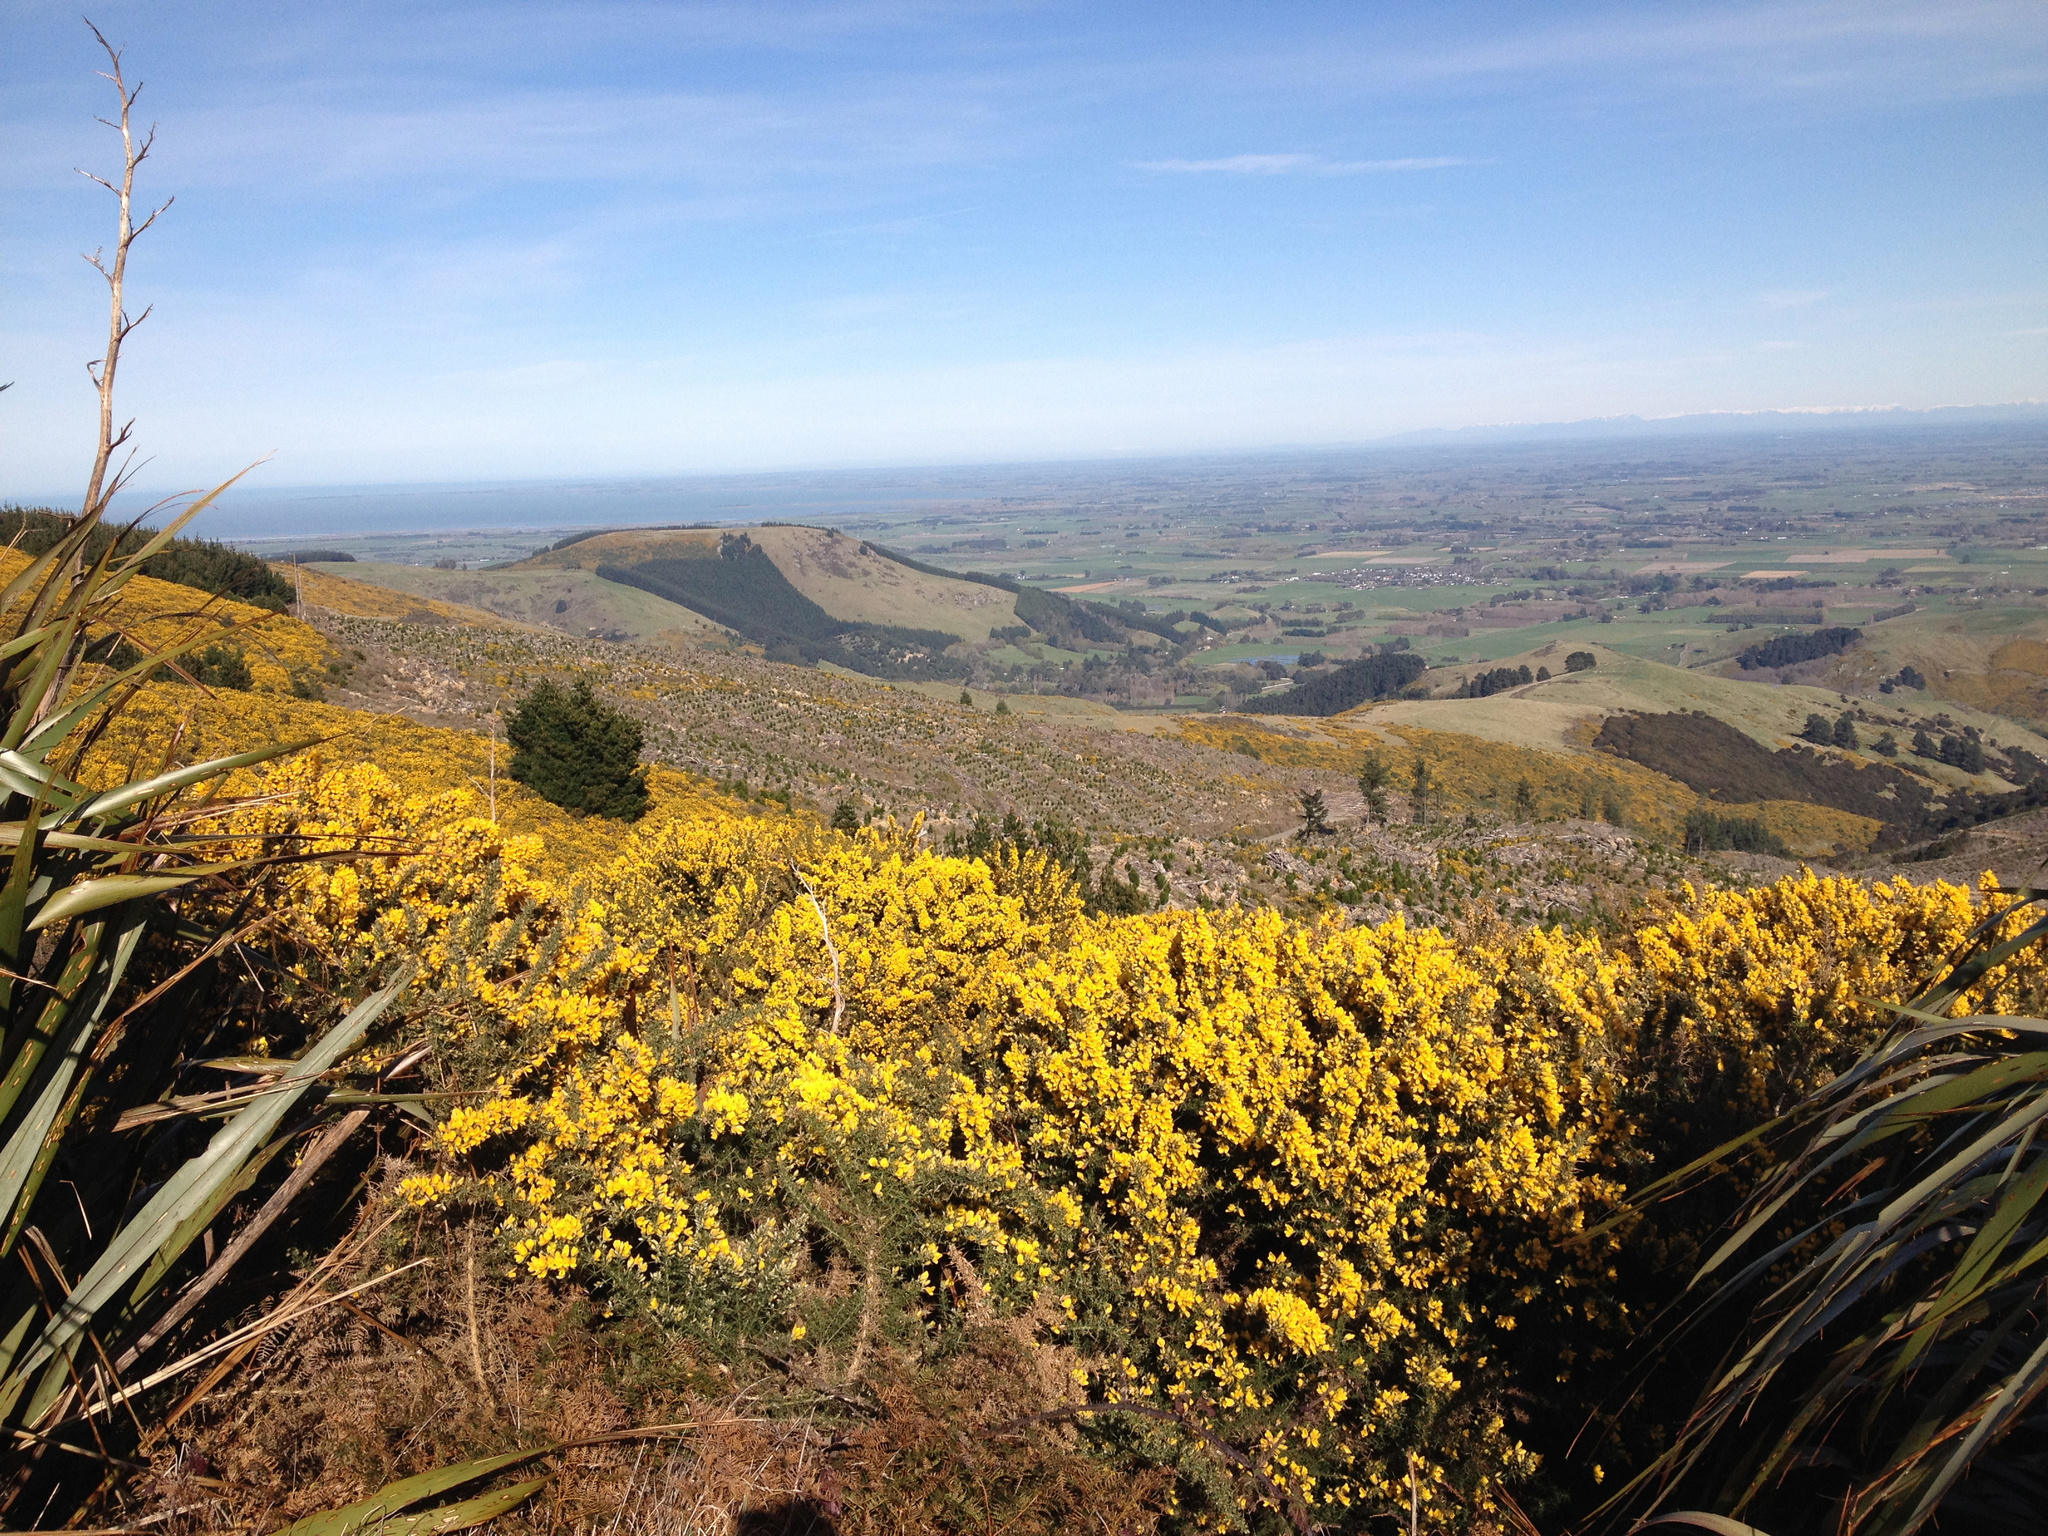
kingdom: Plantae
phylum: Tracheophyta
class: Magnoliopsida
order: Fabales
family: Fabaceae
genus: Ulex
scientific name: Ulex europaeus
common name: Common gorse
